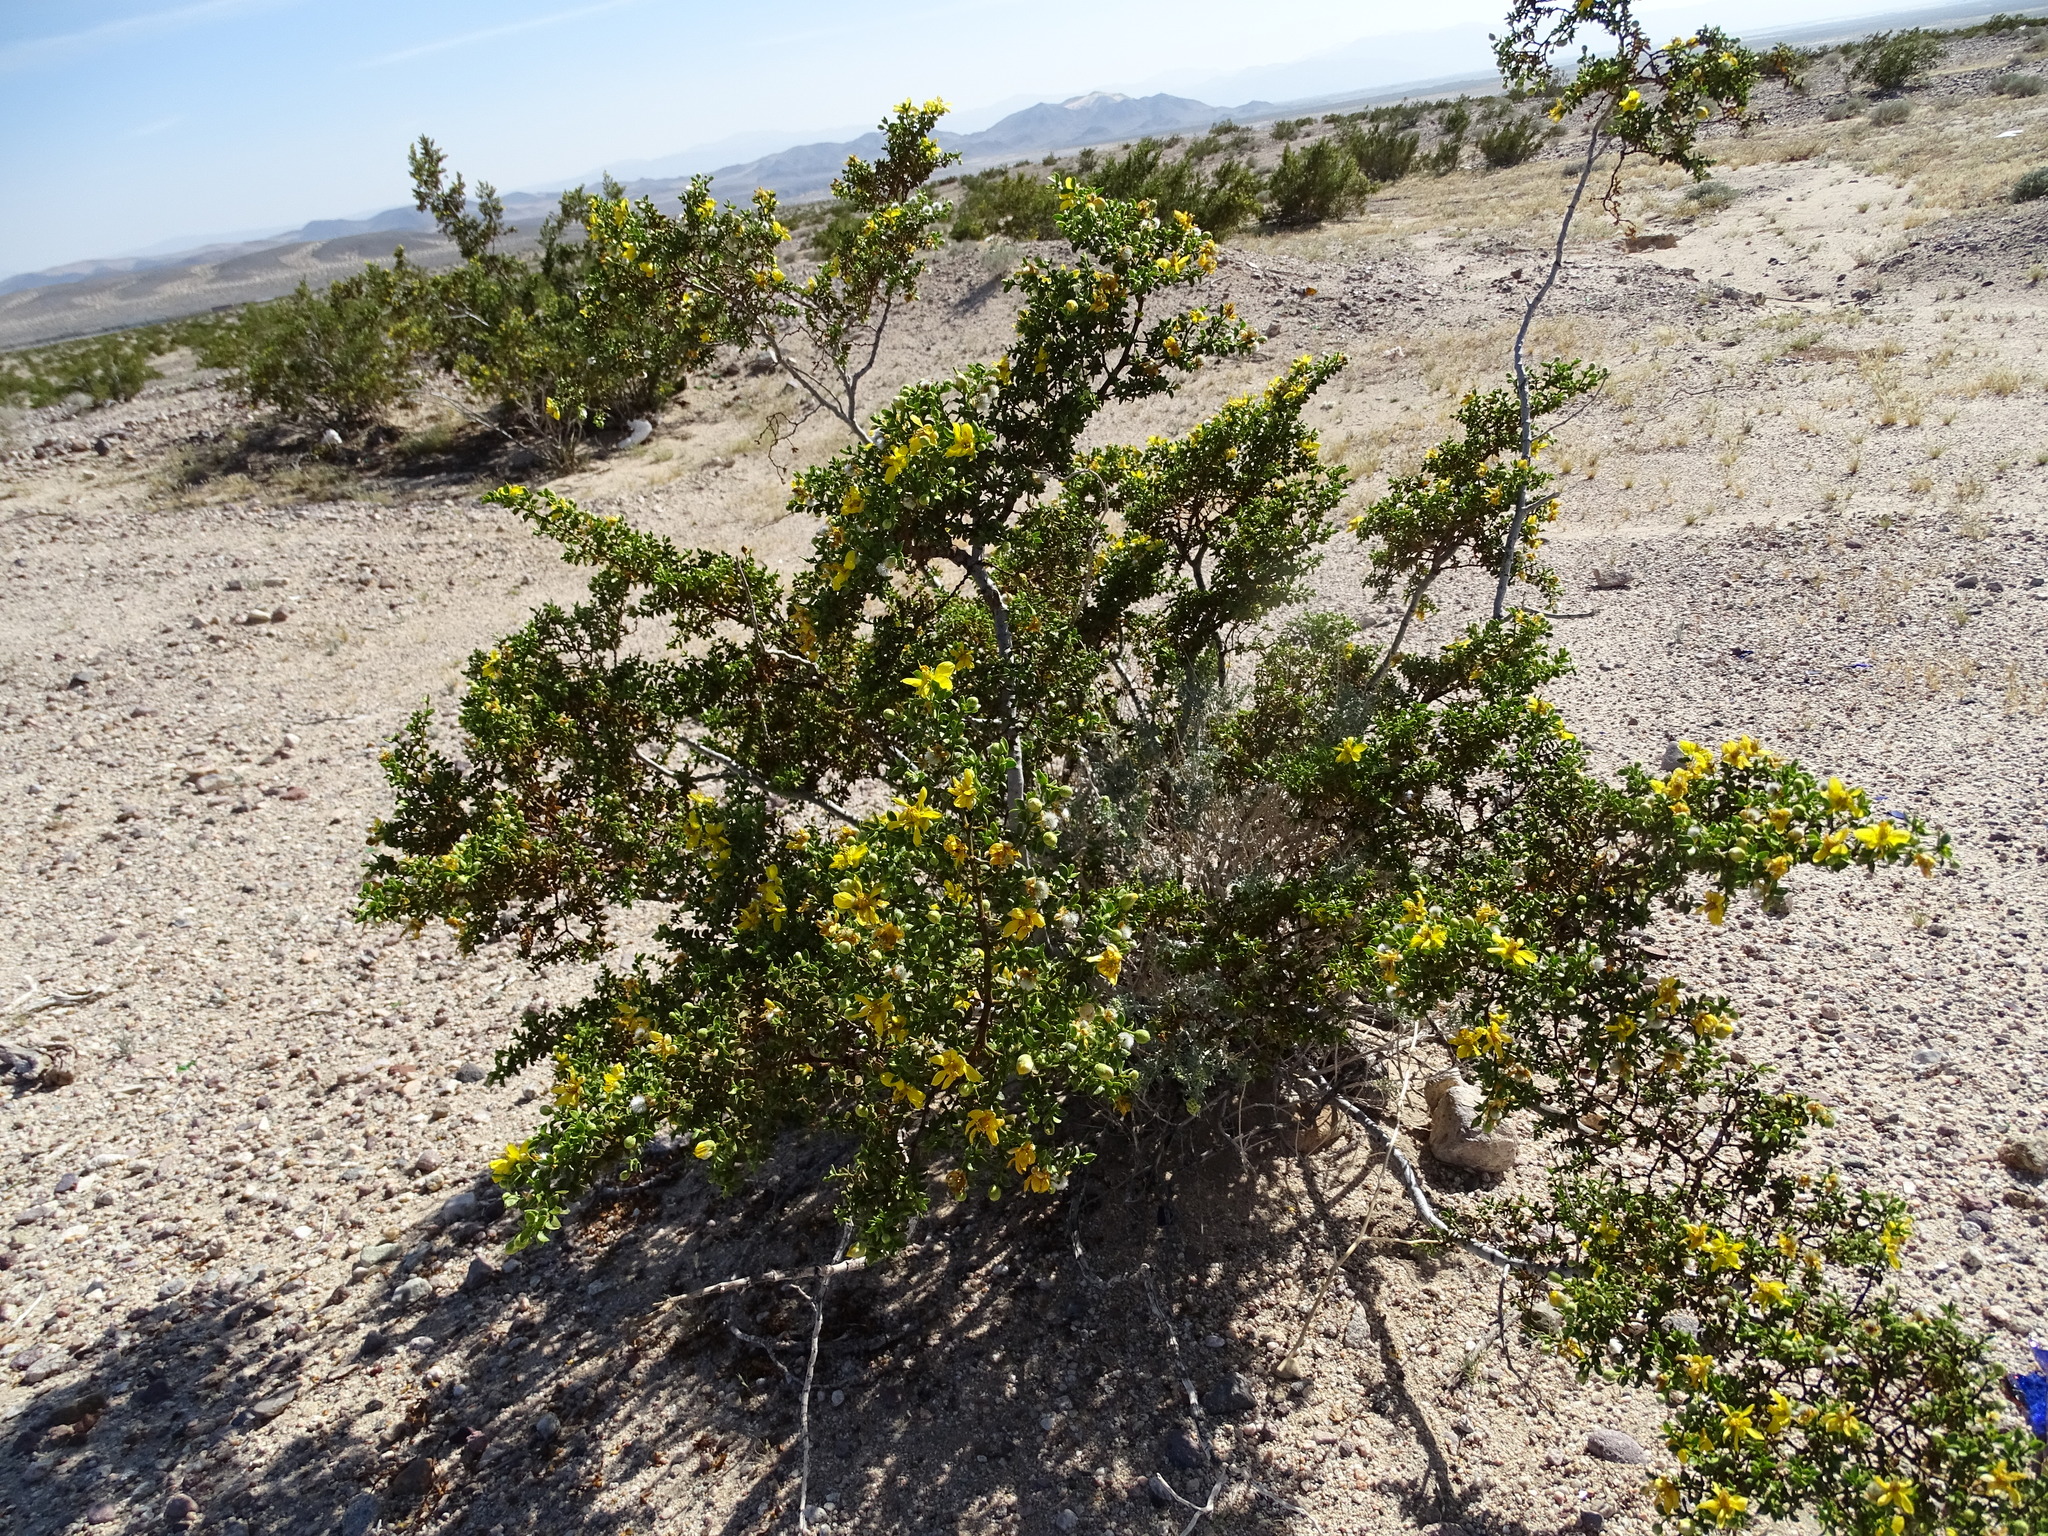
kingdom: Plantae
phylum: Tracheophyta
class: Magnoliopsida
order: Zygophyllales
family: Zygophyllaceae
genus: Larrea
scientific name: Larrea tridentata
